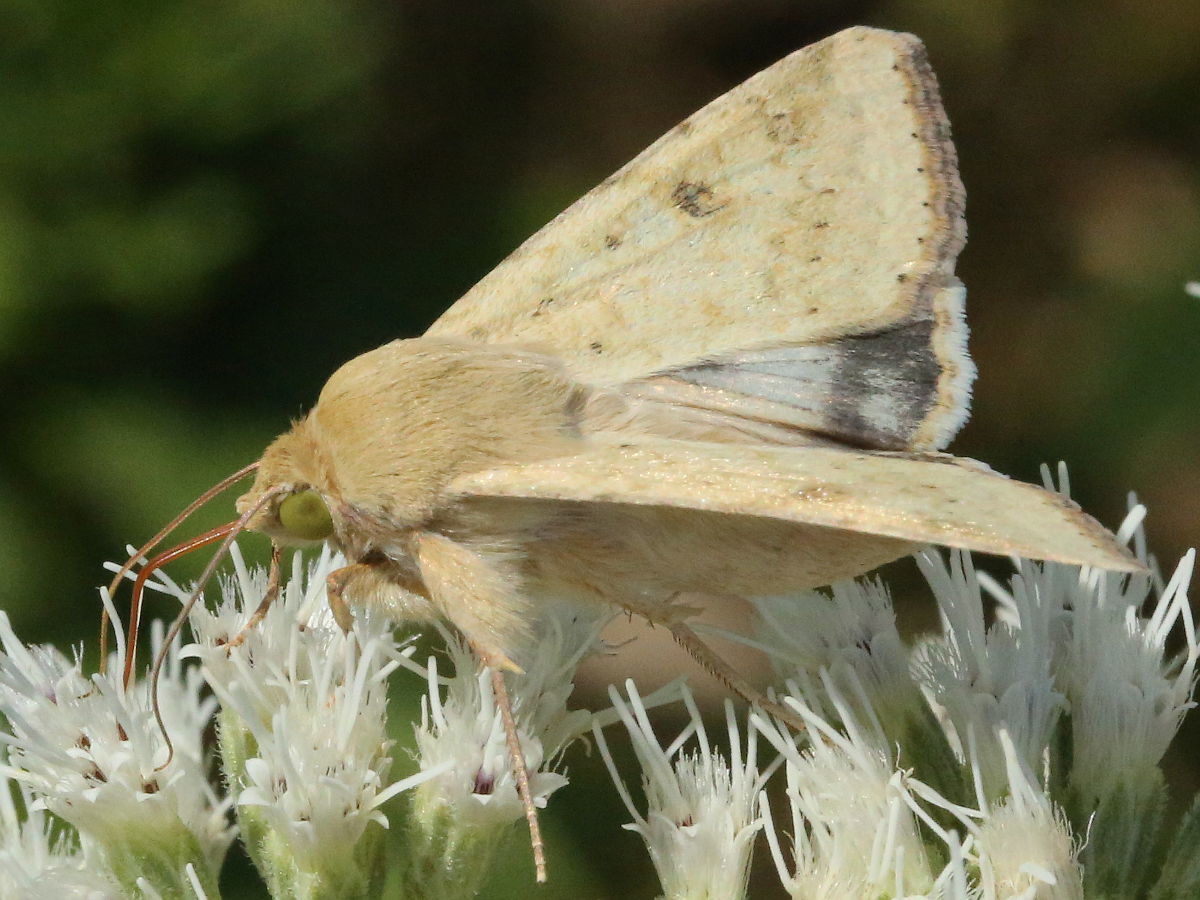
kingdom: Animalia
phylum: Arthropoda
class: Insecta
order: Lepidoptera
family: Noctuidae
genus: Helicoverpa
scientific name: Helicoverpa zea
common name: Bollworm
